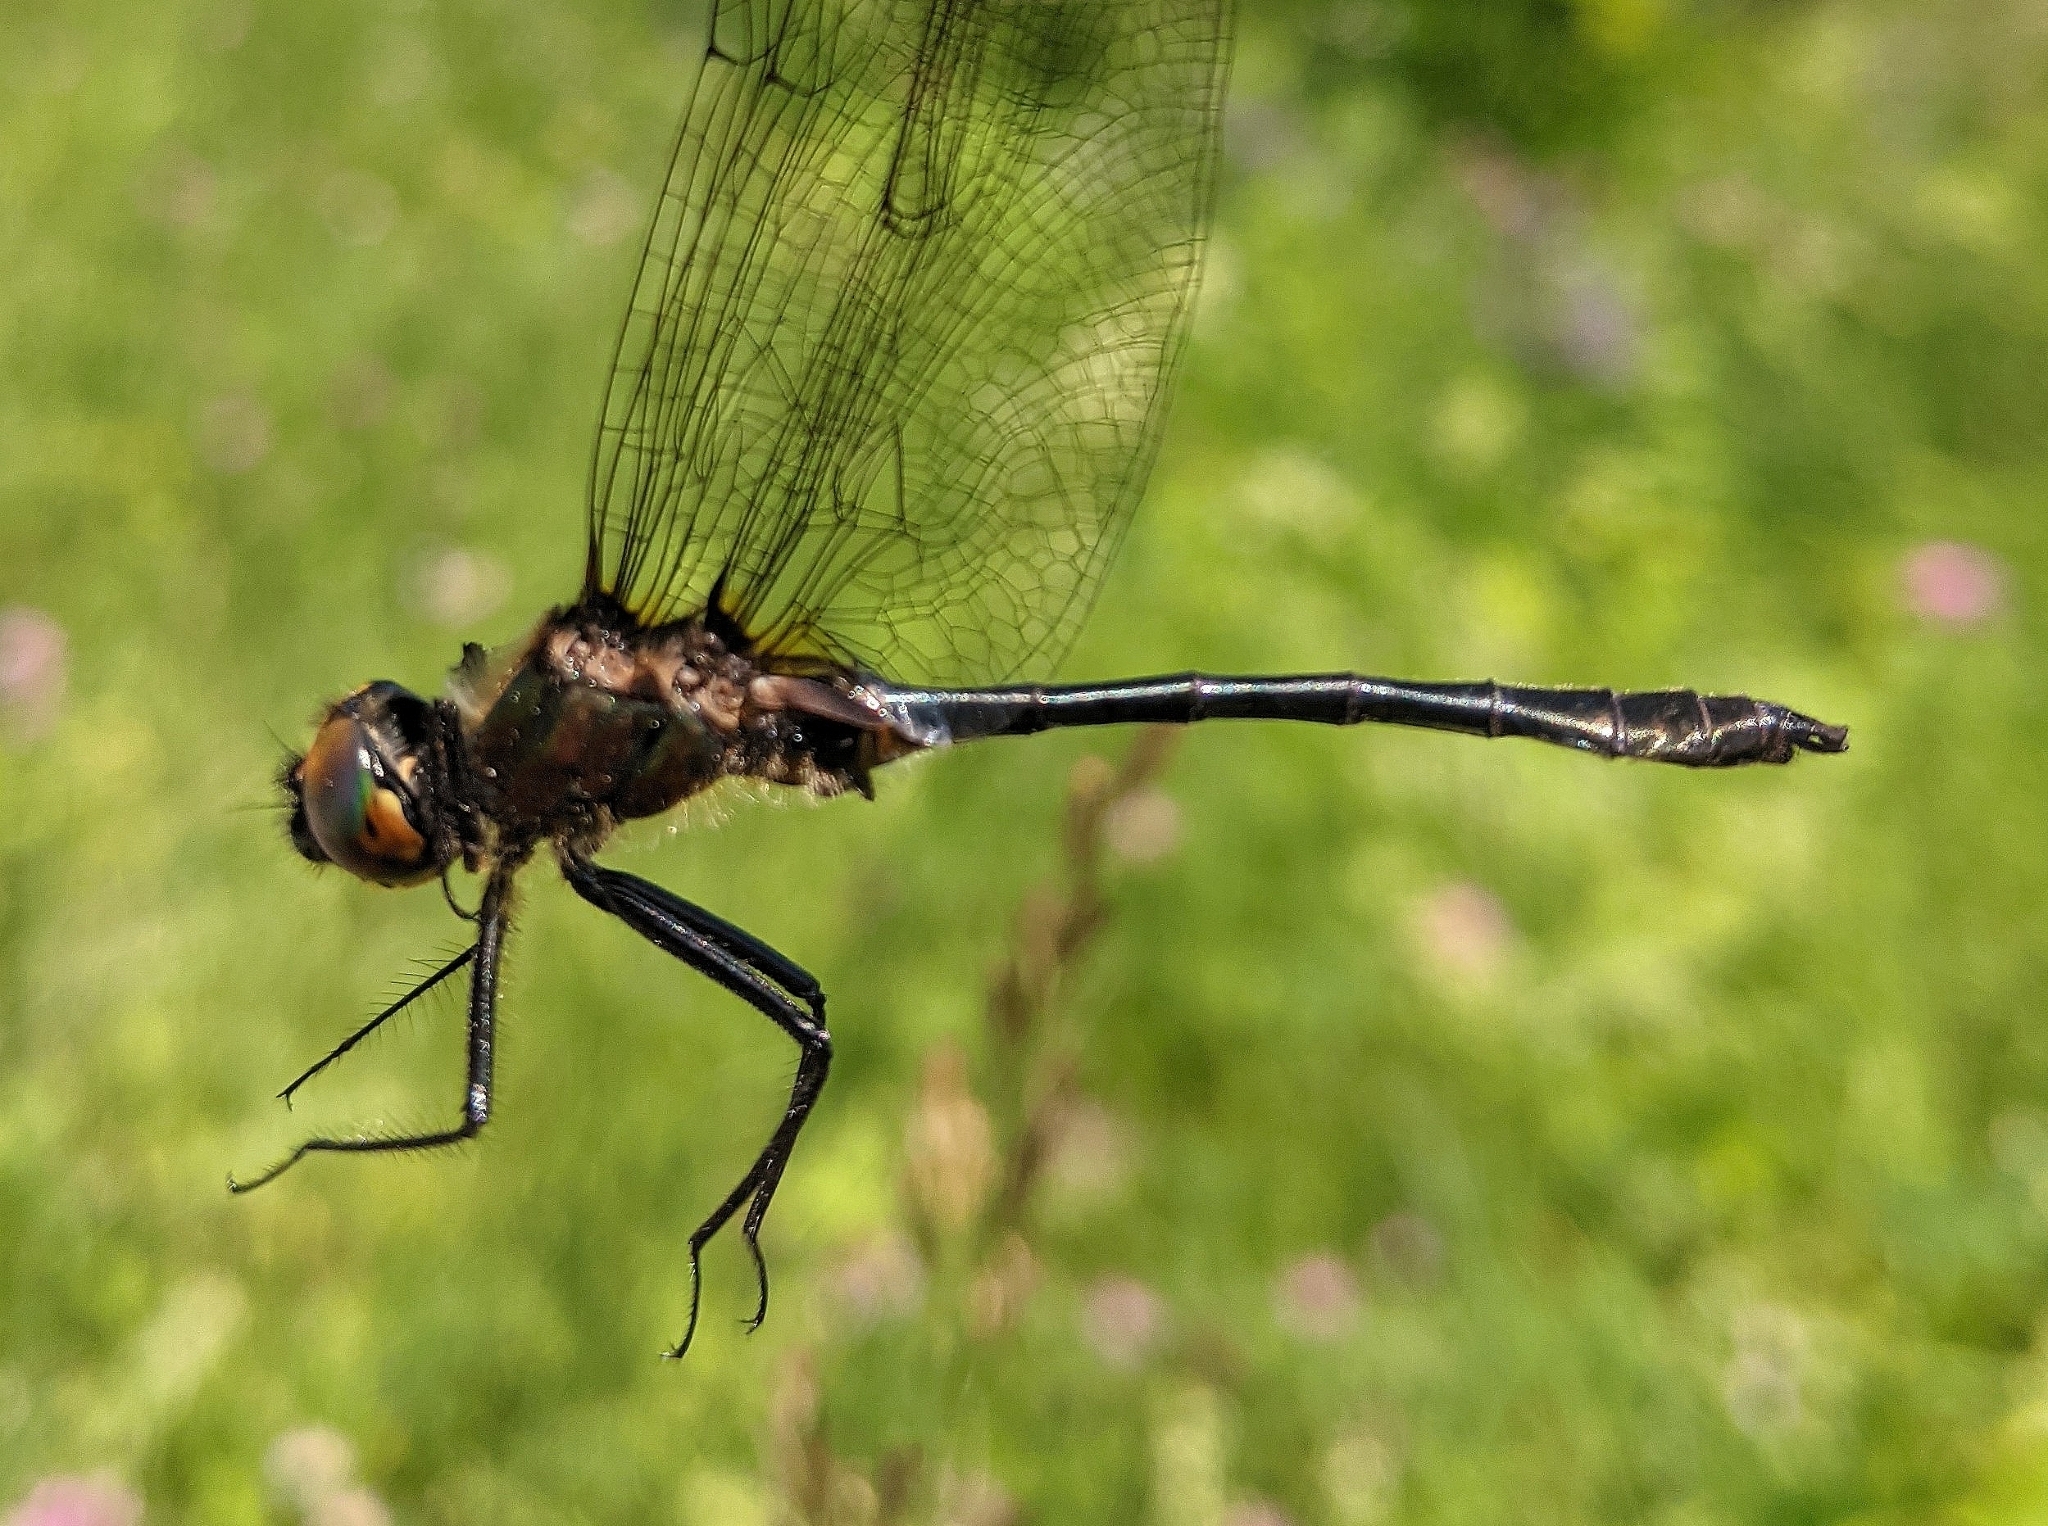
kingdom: Animalia
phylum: Arthropoda
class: Insecta
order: Odonata
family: Corduliidae
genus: Dorocordulia
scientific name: Dorocordulia libera
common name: Racket-tailed emerald
